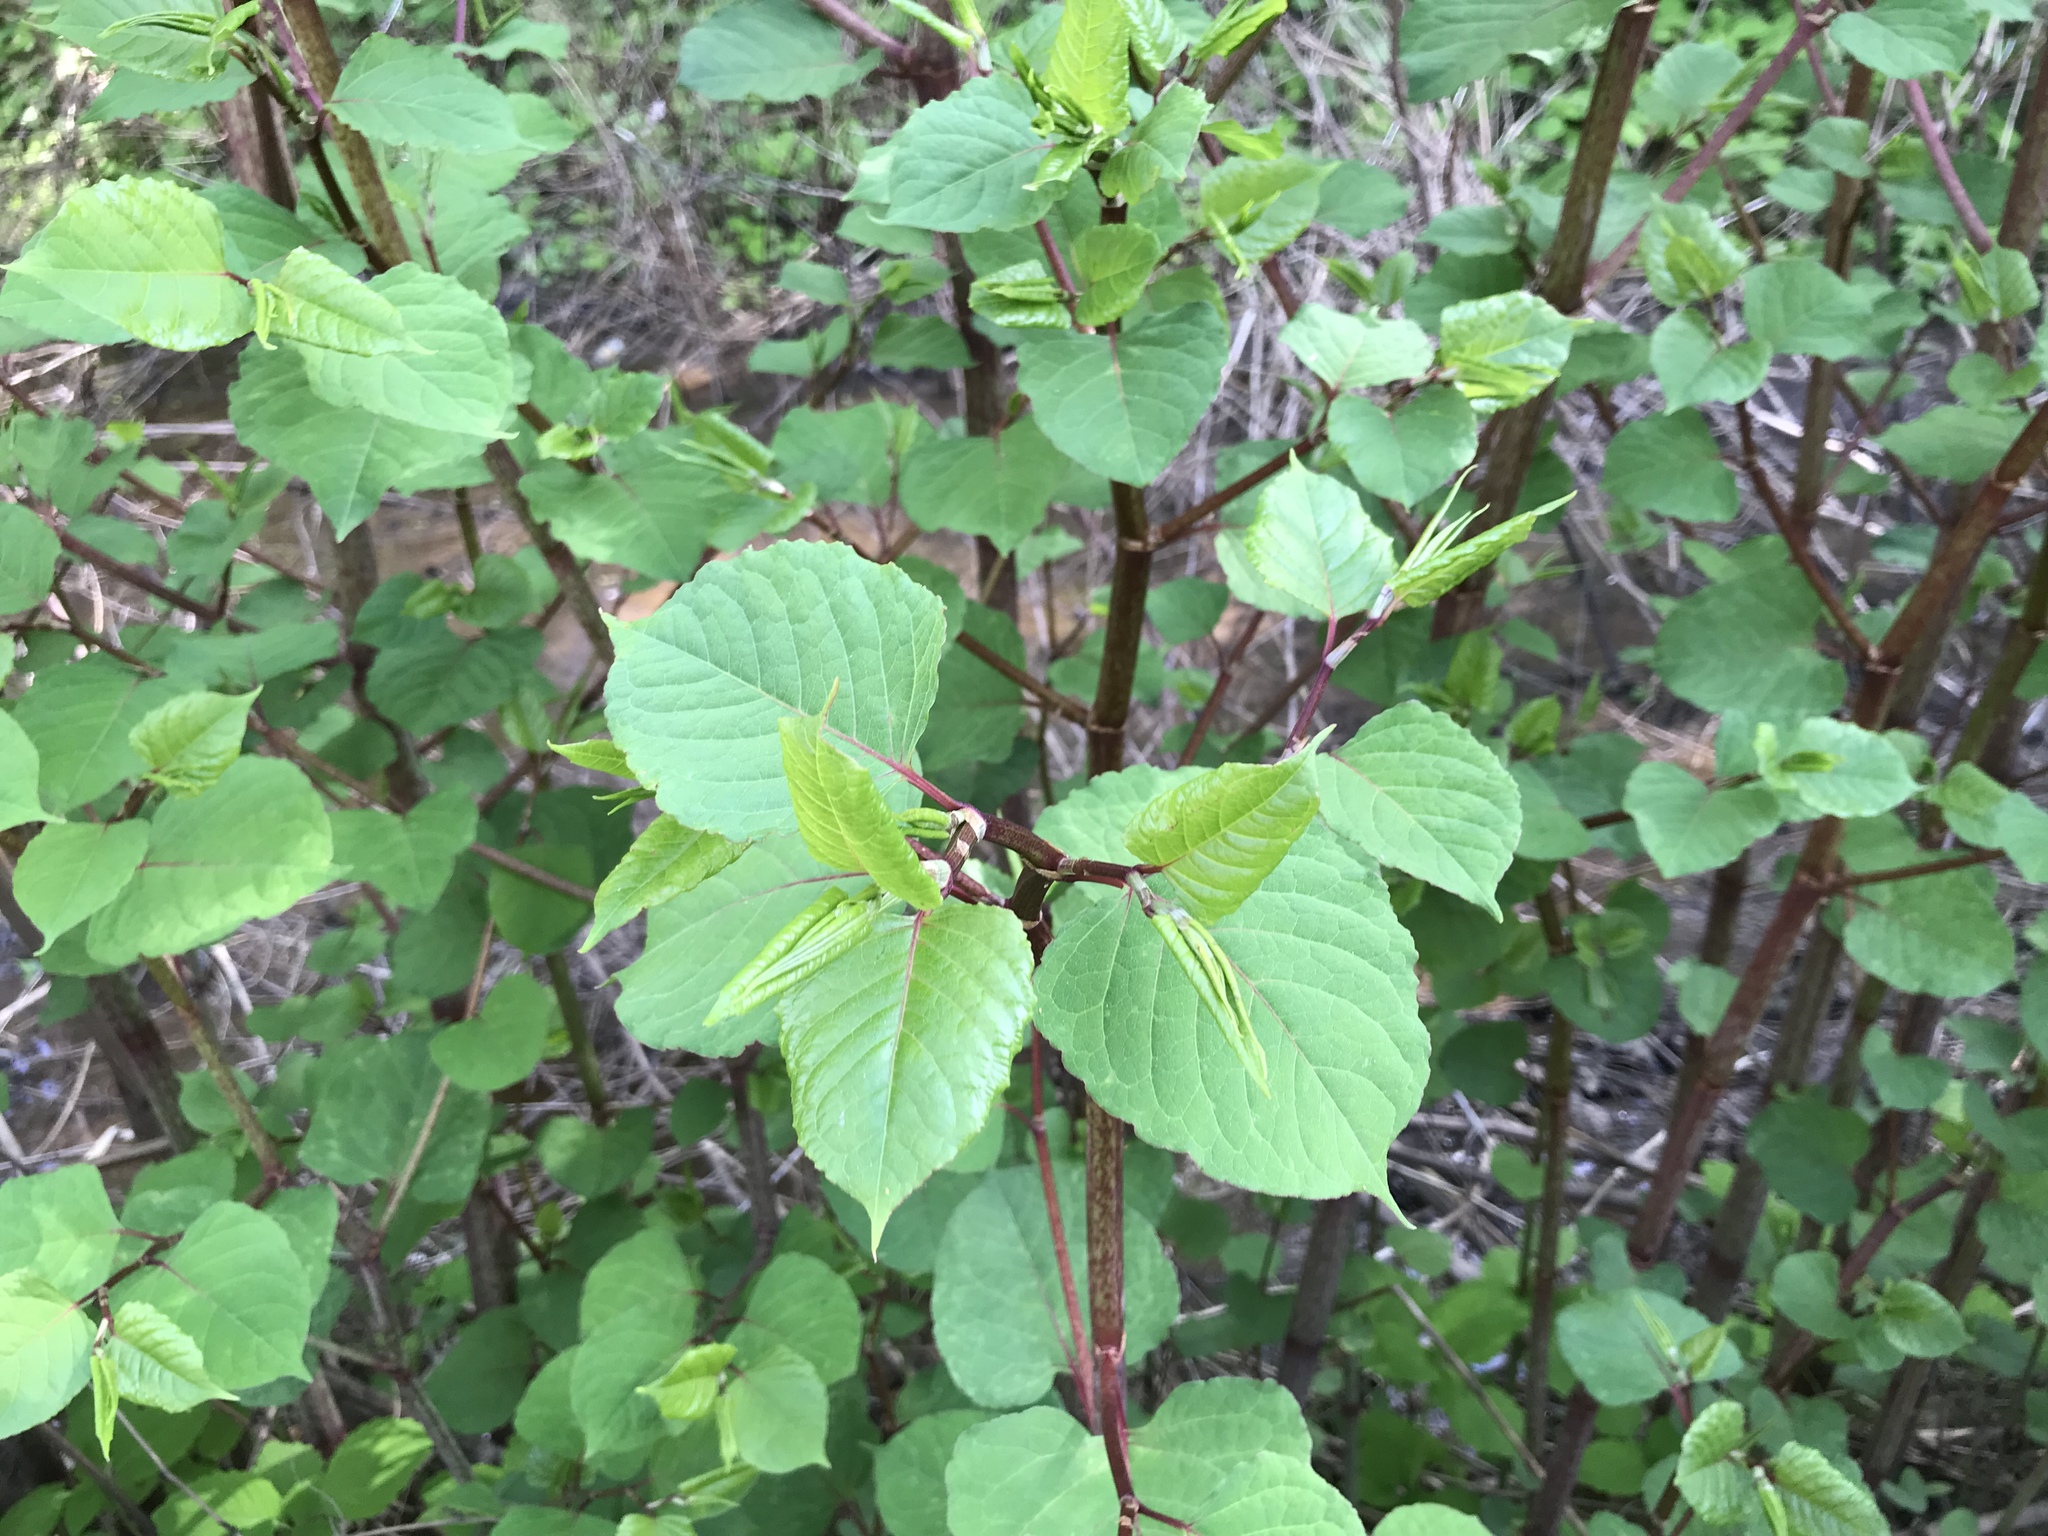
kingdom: Plantae
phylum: Tracheophyta
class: Magnoliopsida
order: Caryophyllales
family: Polygonaceae
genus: Reynoutria
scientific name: Reynoutria japonica
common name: Japanese knotweed
